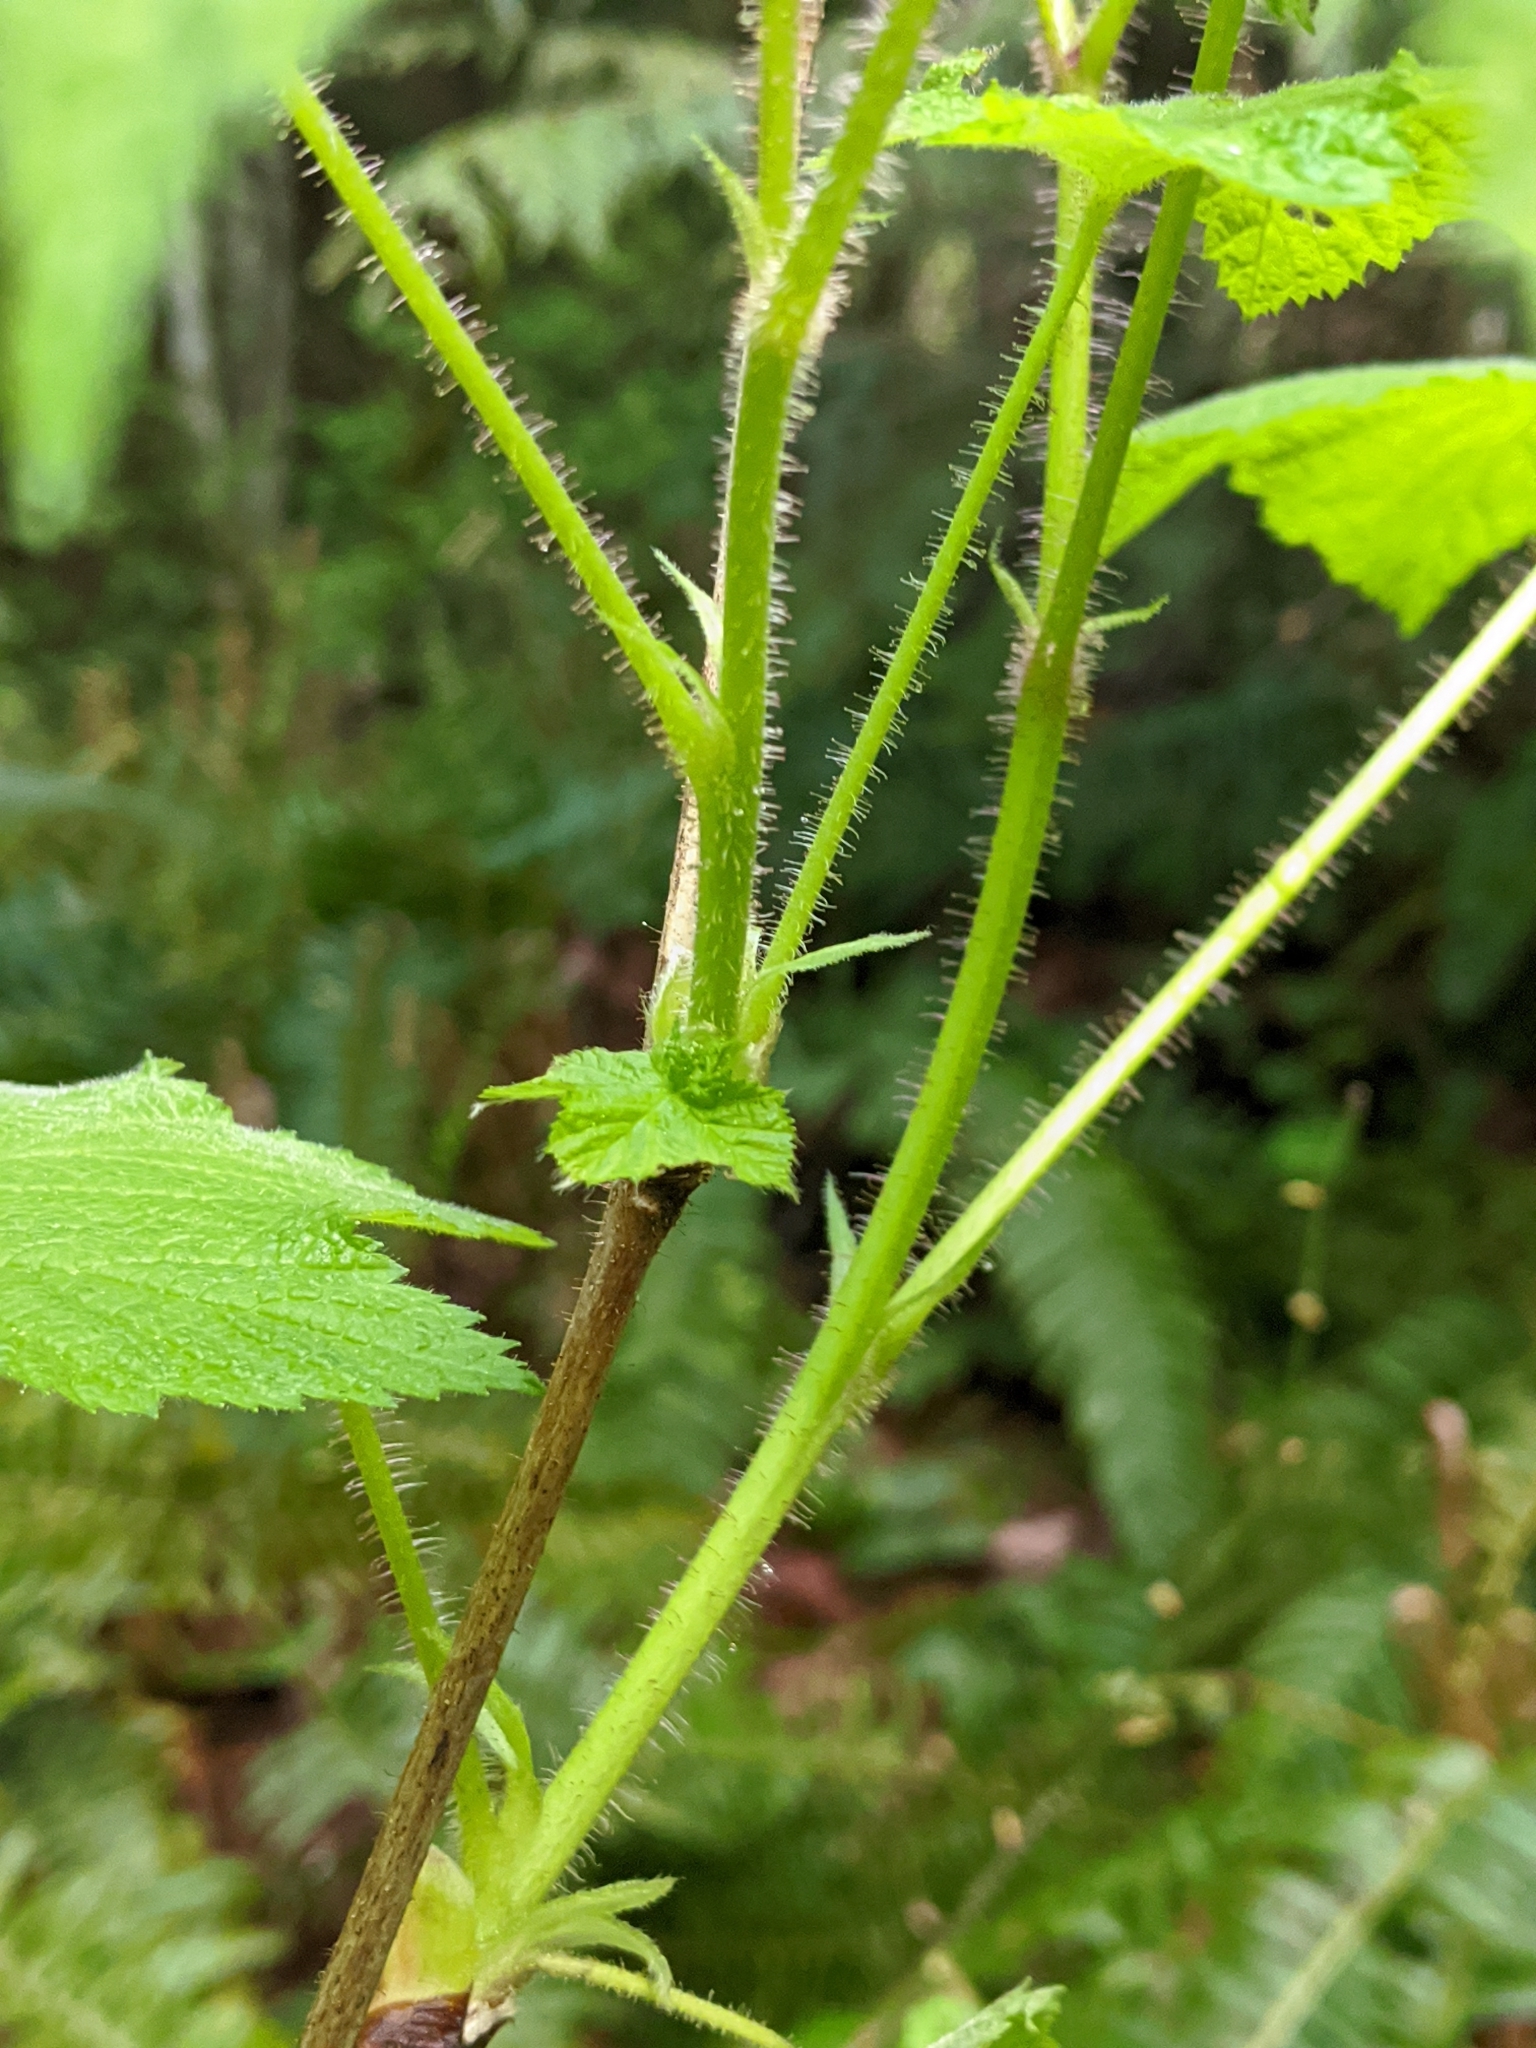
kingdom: Plantae
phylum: Tracheophyta
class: Magnoliopsida
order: Rosales
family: Rosaceae
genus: Rubus
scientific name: Rubus parviflorus
